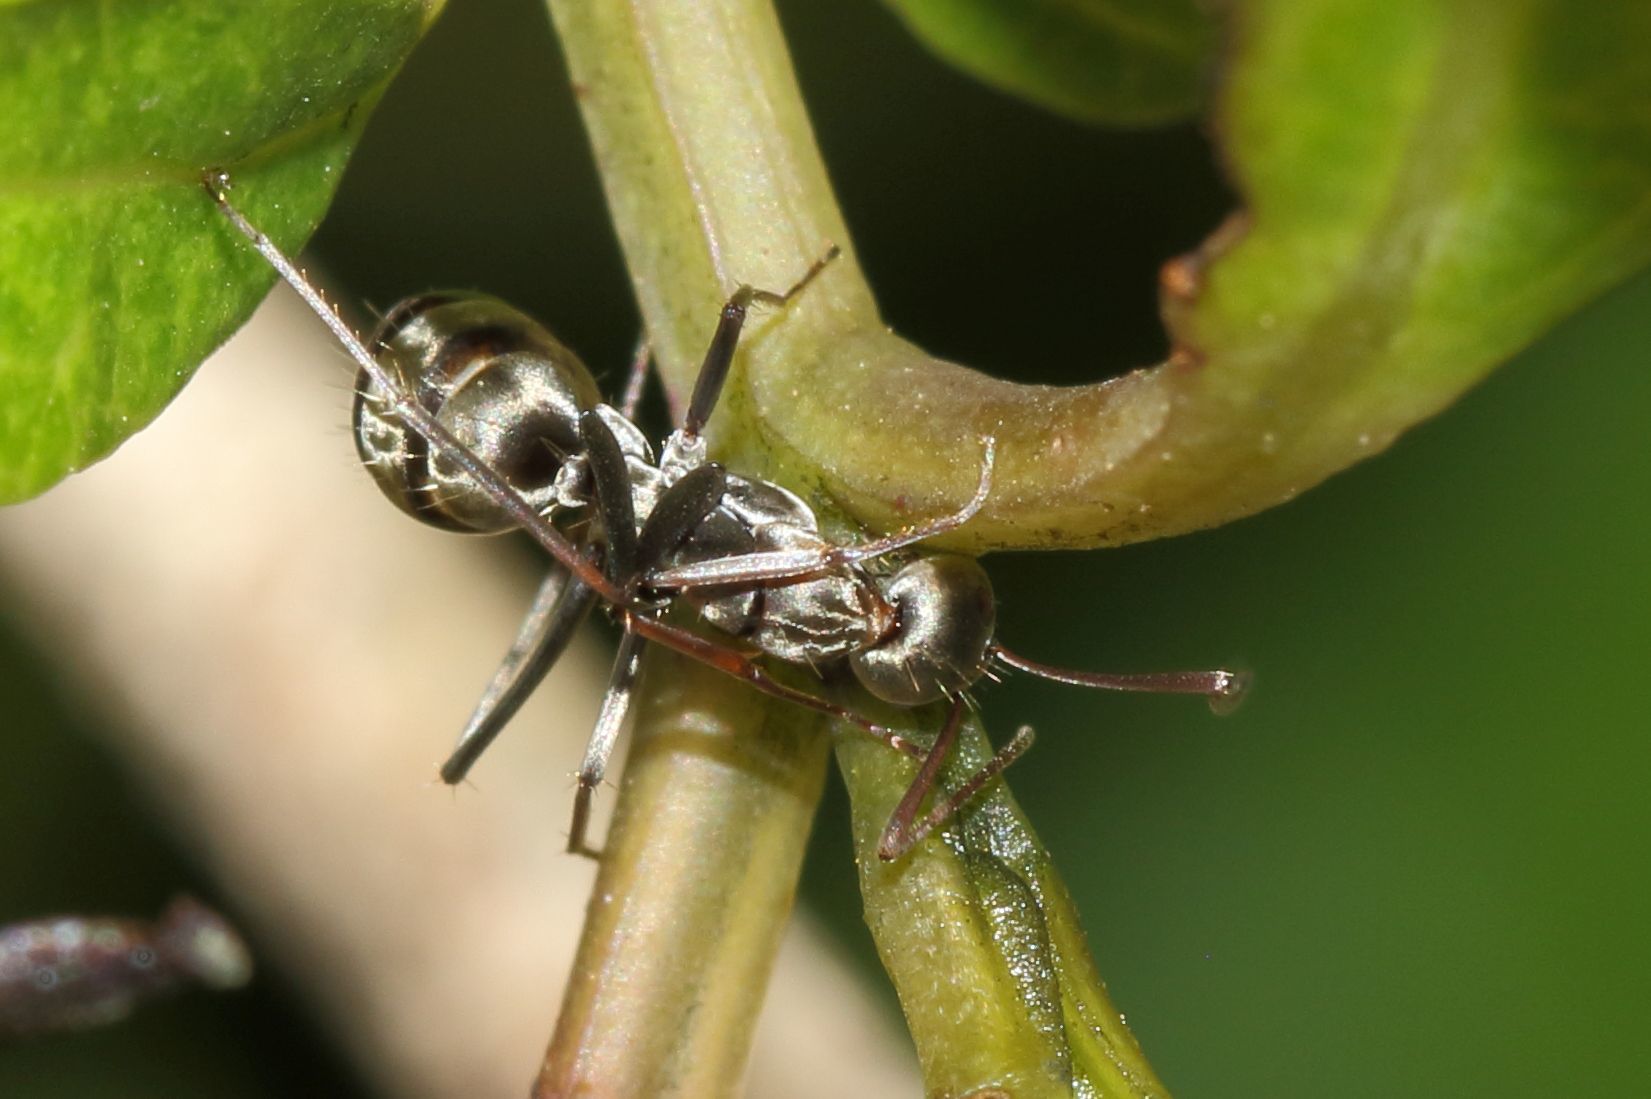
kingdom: Animalia
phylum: Arthropoda
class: Insecta
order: Hymenoptera
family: Formicidae
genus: Camponotus
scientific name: Camponotus cinctellus
